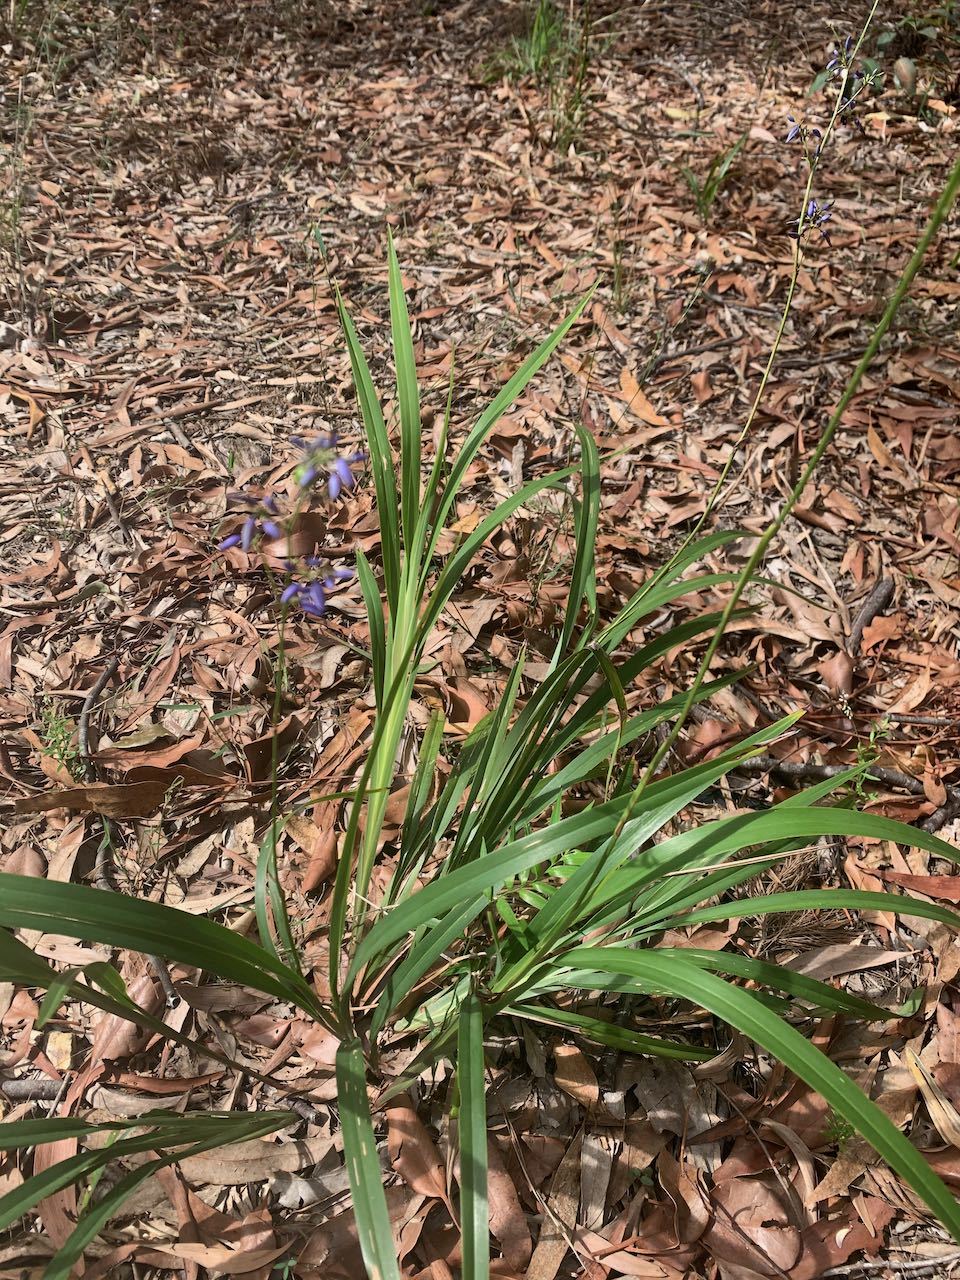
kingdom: Plantae
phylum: Tracheophyta
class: Liliopsida
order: Asparagales
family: Asphodelaceae
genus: Dianella
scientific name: Dianella caerulea
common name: Blue flax-lily
